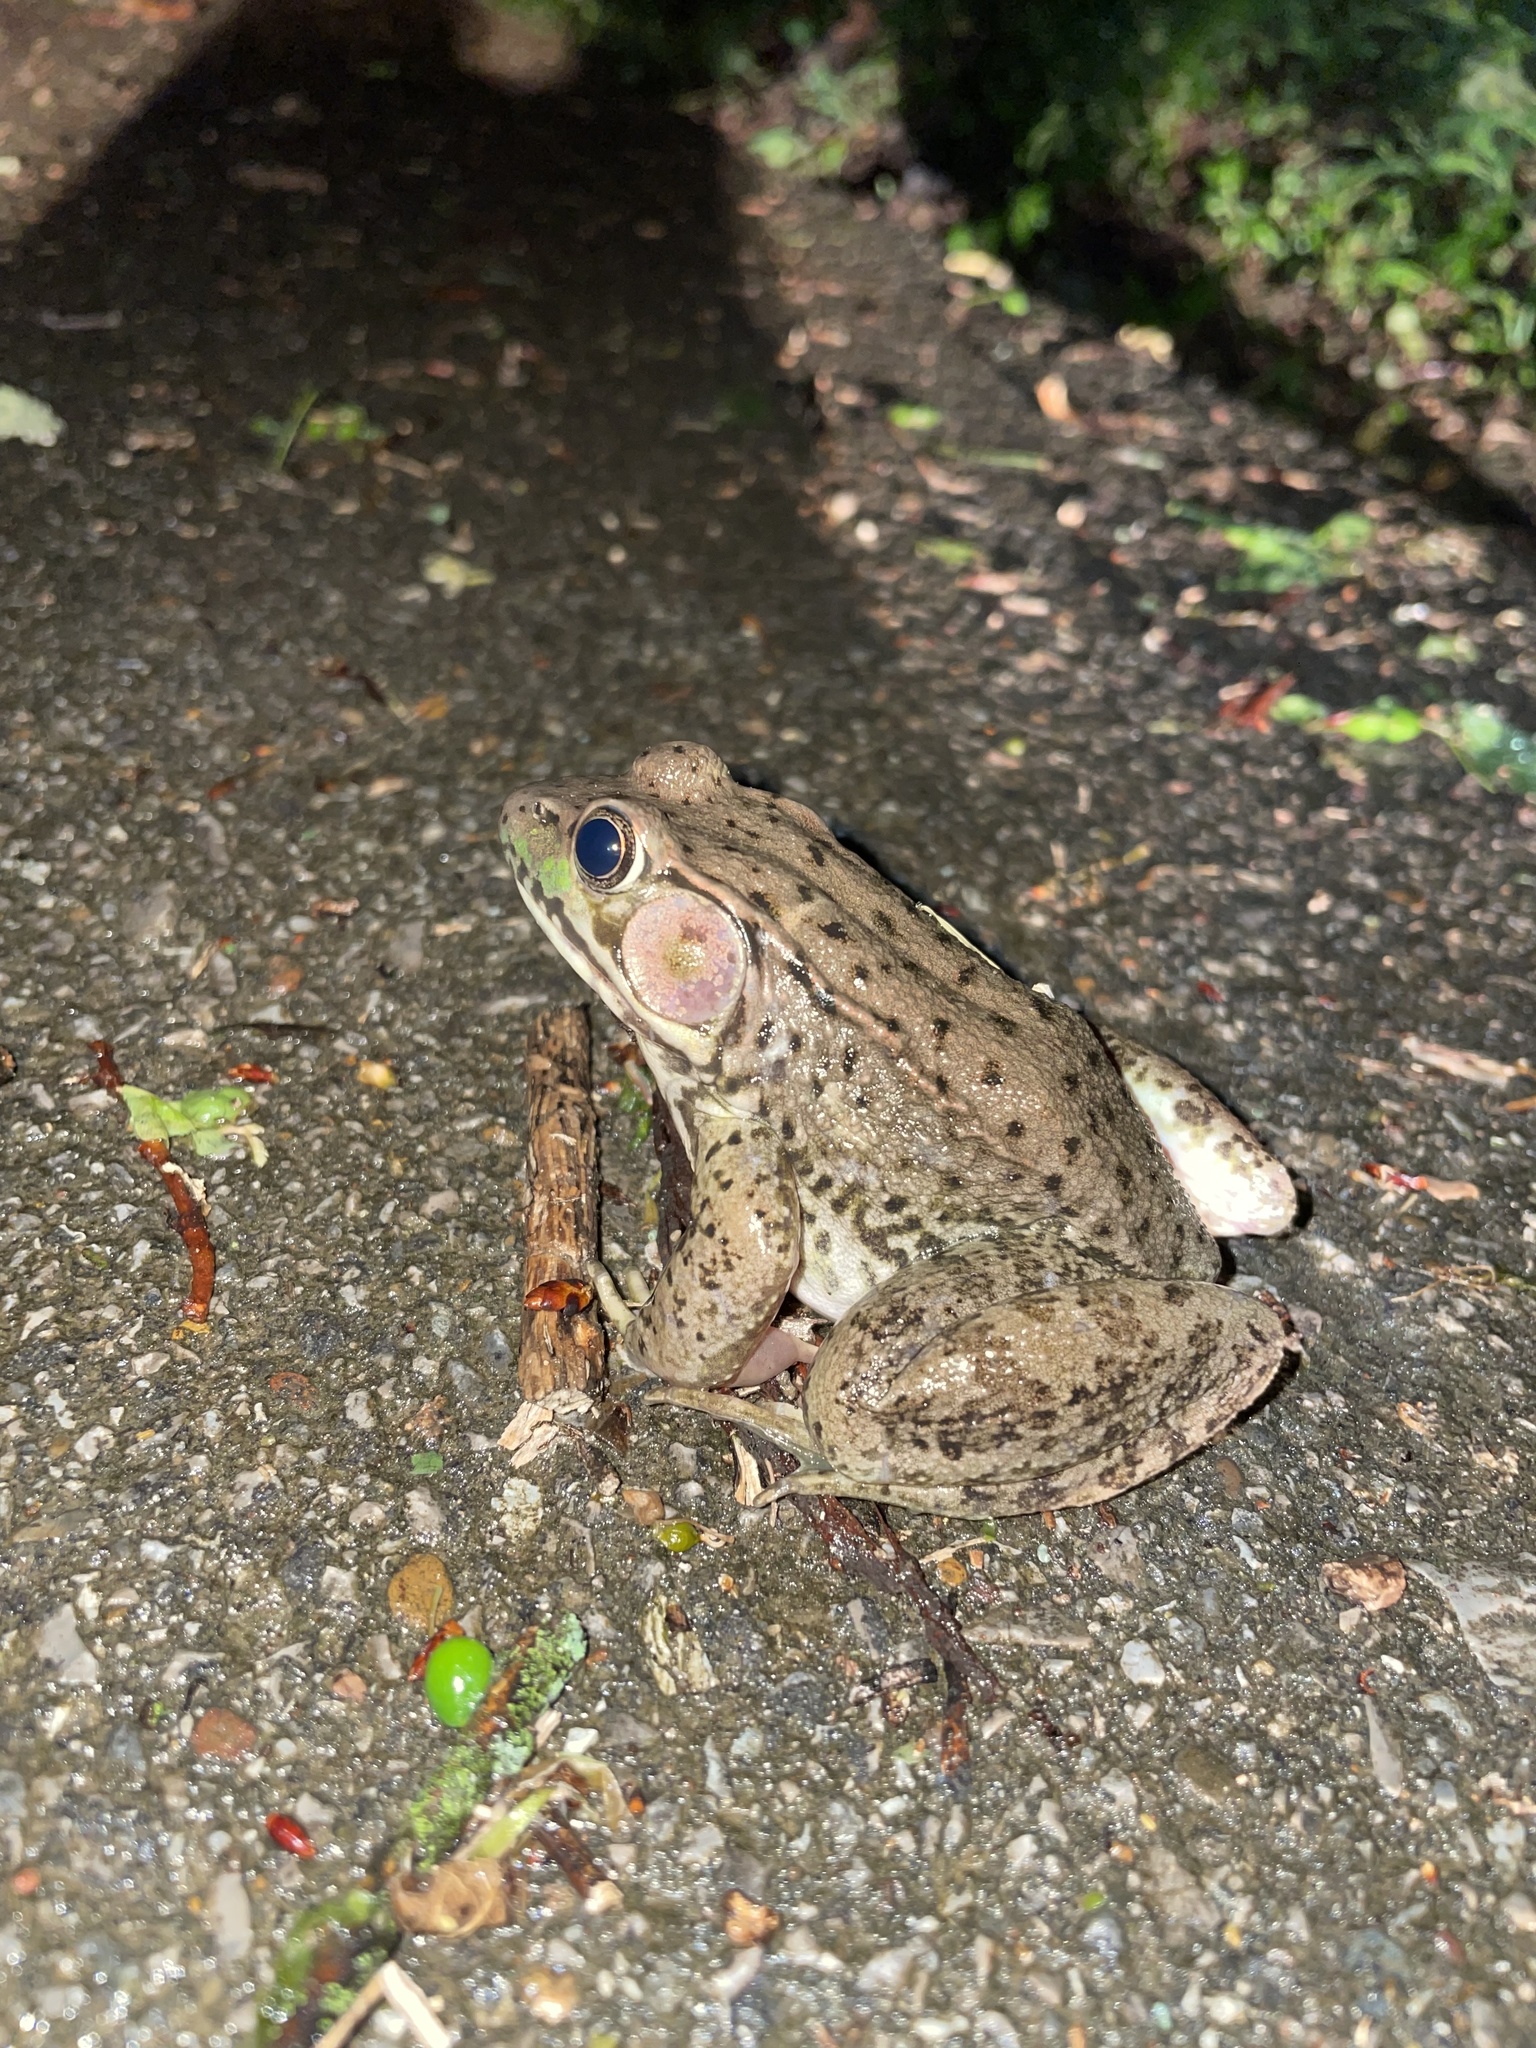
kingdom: Animalia
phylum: Chordata
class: Amphibia
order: Anura
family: Ranidae
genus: Lithobates
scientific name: Lithobates clamitans
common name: Green frog
